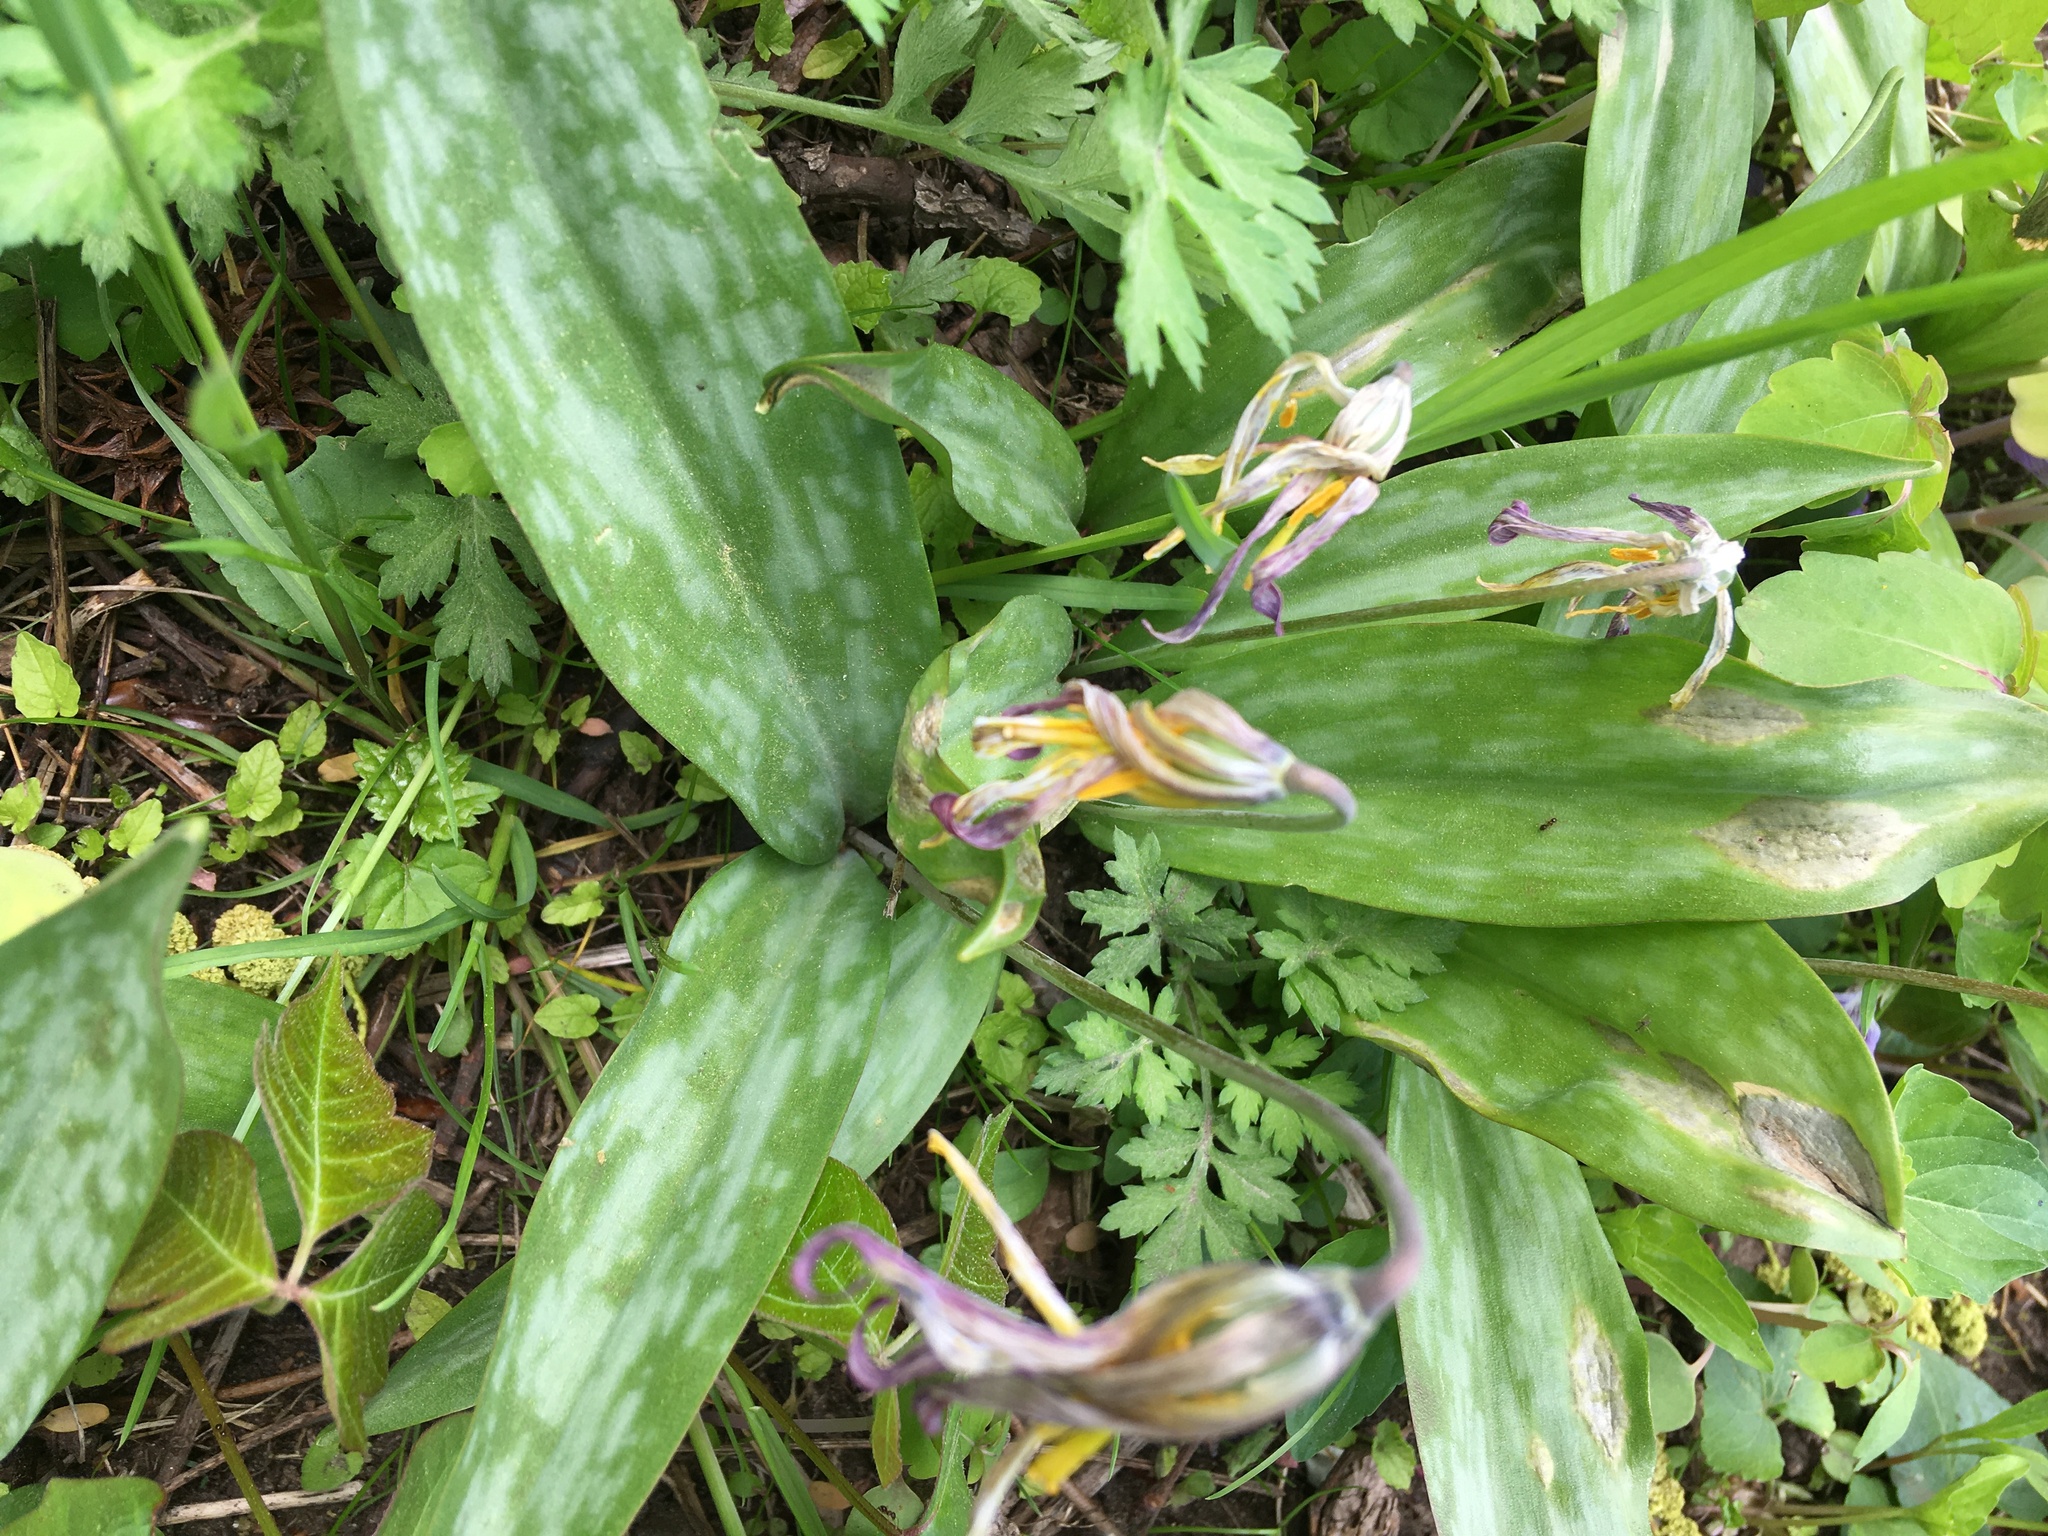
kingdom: Plantae
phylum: Tracheophyta
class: Liliopsida
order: Liliales
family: Liliaceae
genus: Erythronium
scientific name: Erythronium americanum
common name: Yellow adder's-tongue
